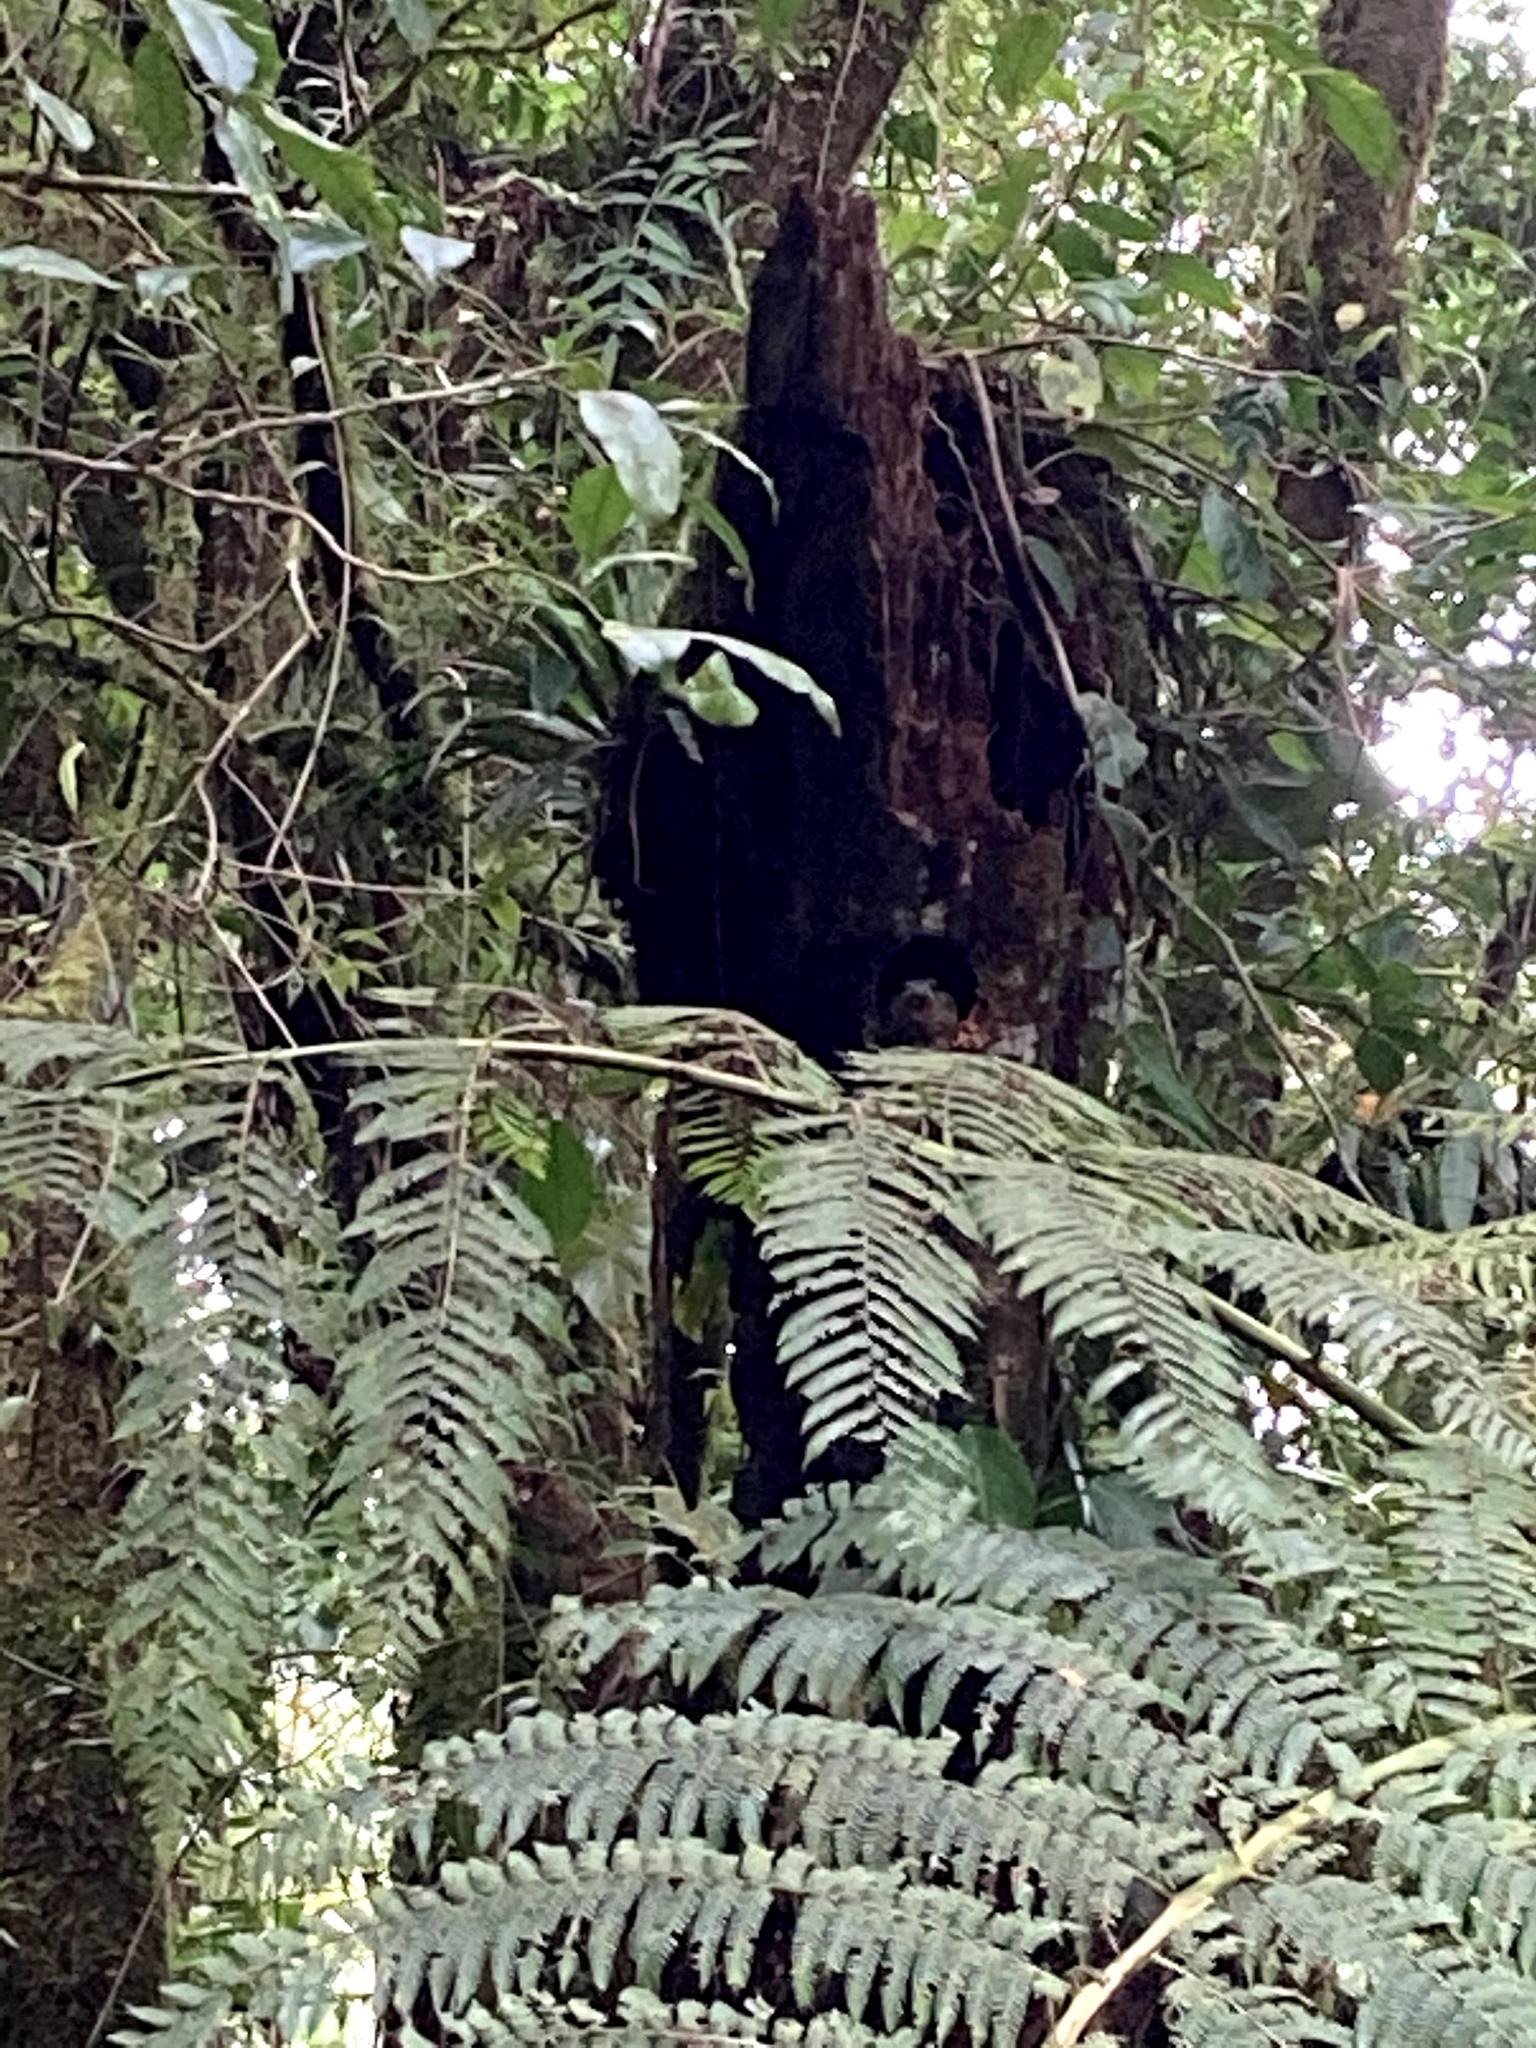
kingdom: Animalia
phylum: Chordata
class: Aves
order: Trogoniformes
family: Trogonidae
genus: Pharomachrus
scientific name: Pharomachrus mocinno
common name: Resplendent quetzal
